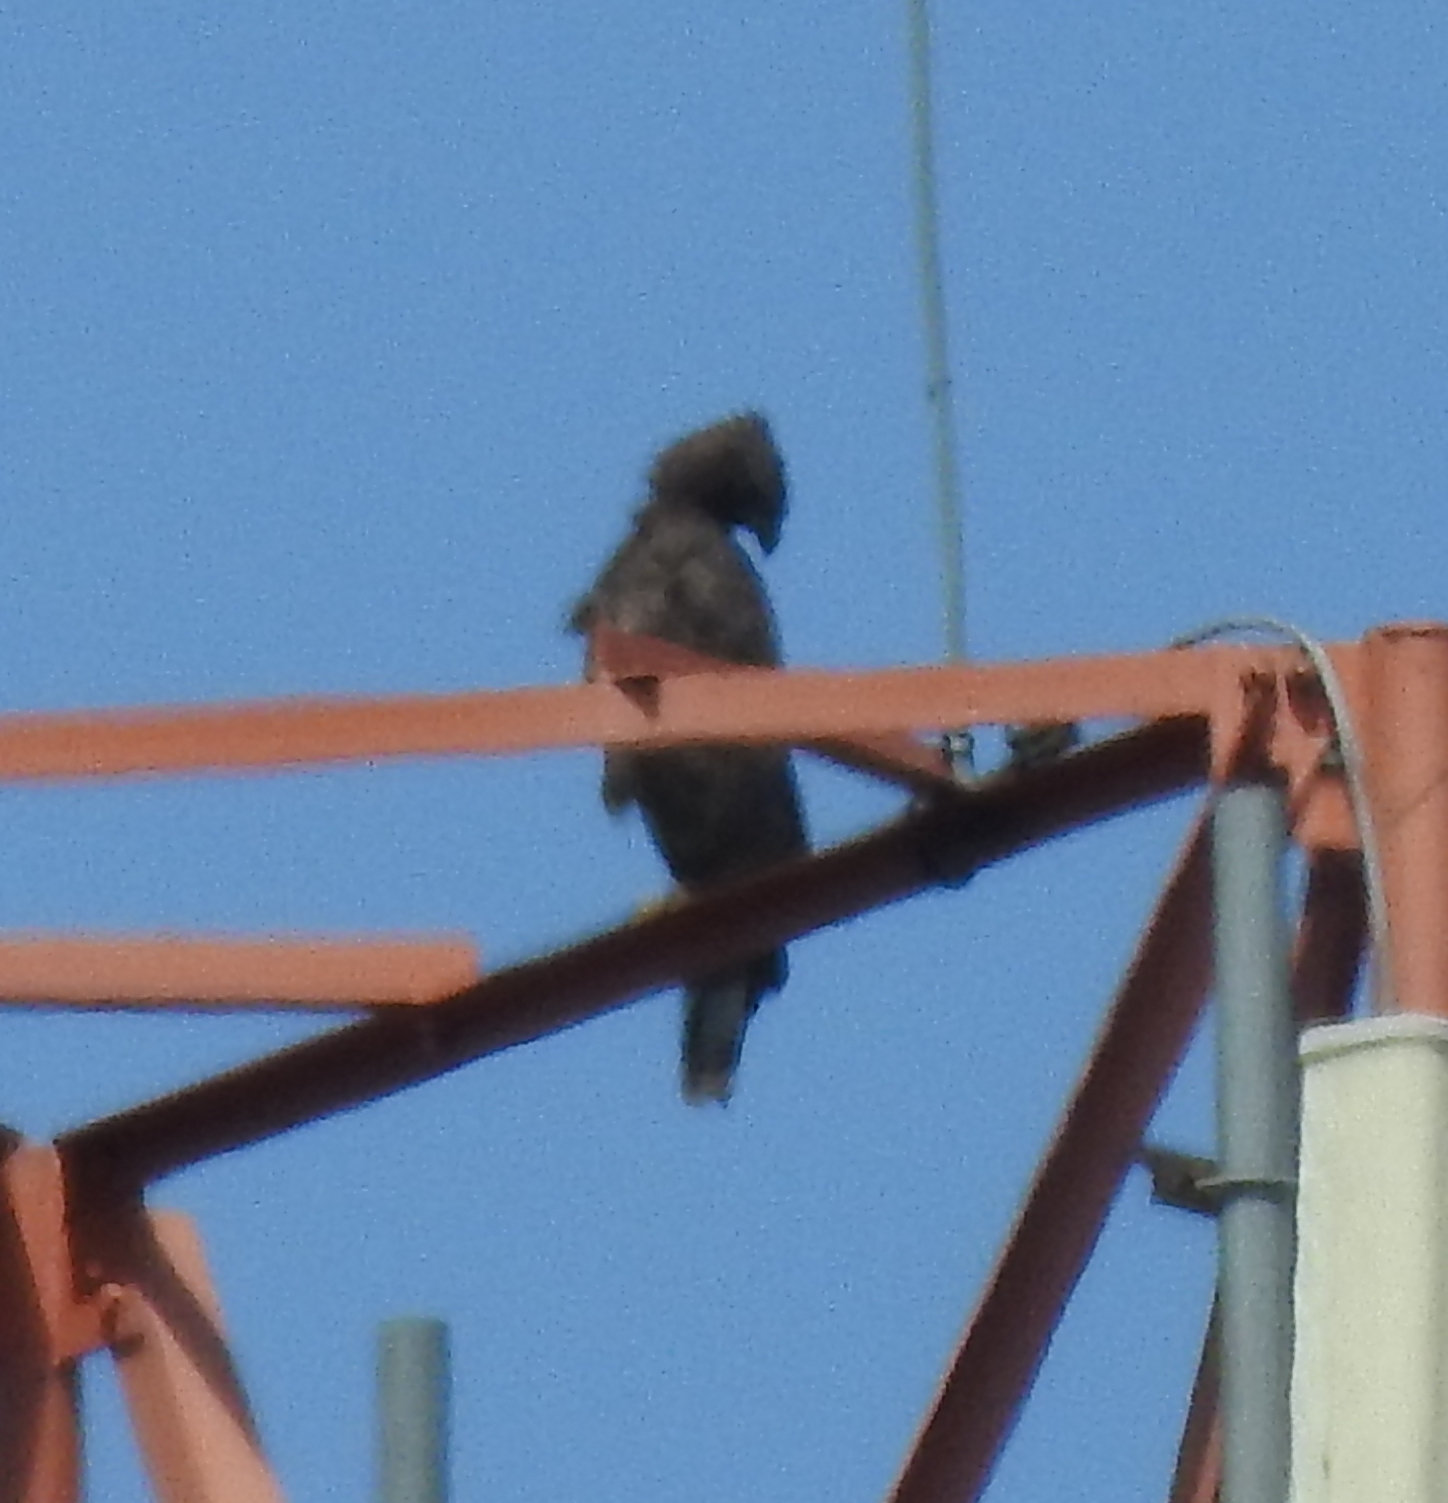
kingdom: Animalia
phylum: Chordata
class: Aves
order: Accipitriformes
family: Accipitridae
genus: Nisaetus
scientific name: Nisaetus cirrhatus
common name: Changeable hawk-eagle
